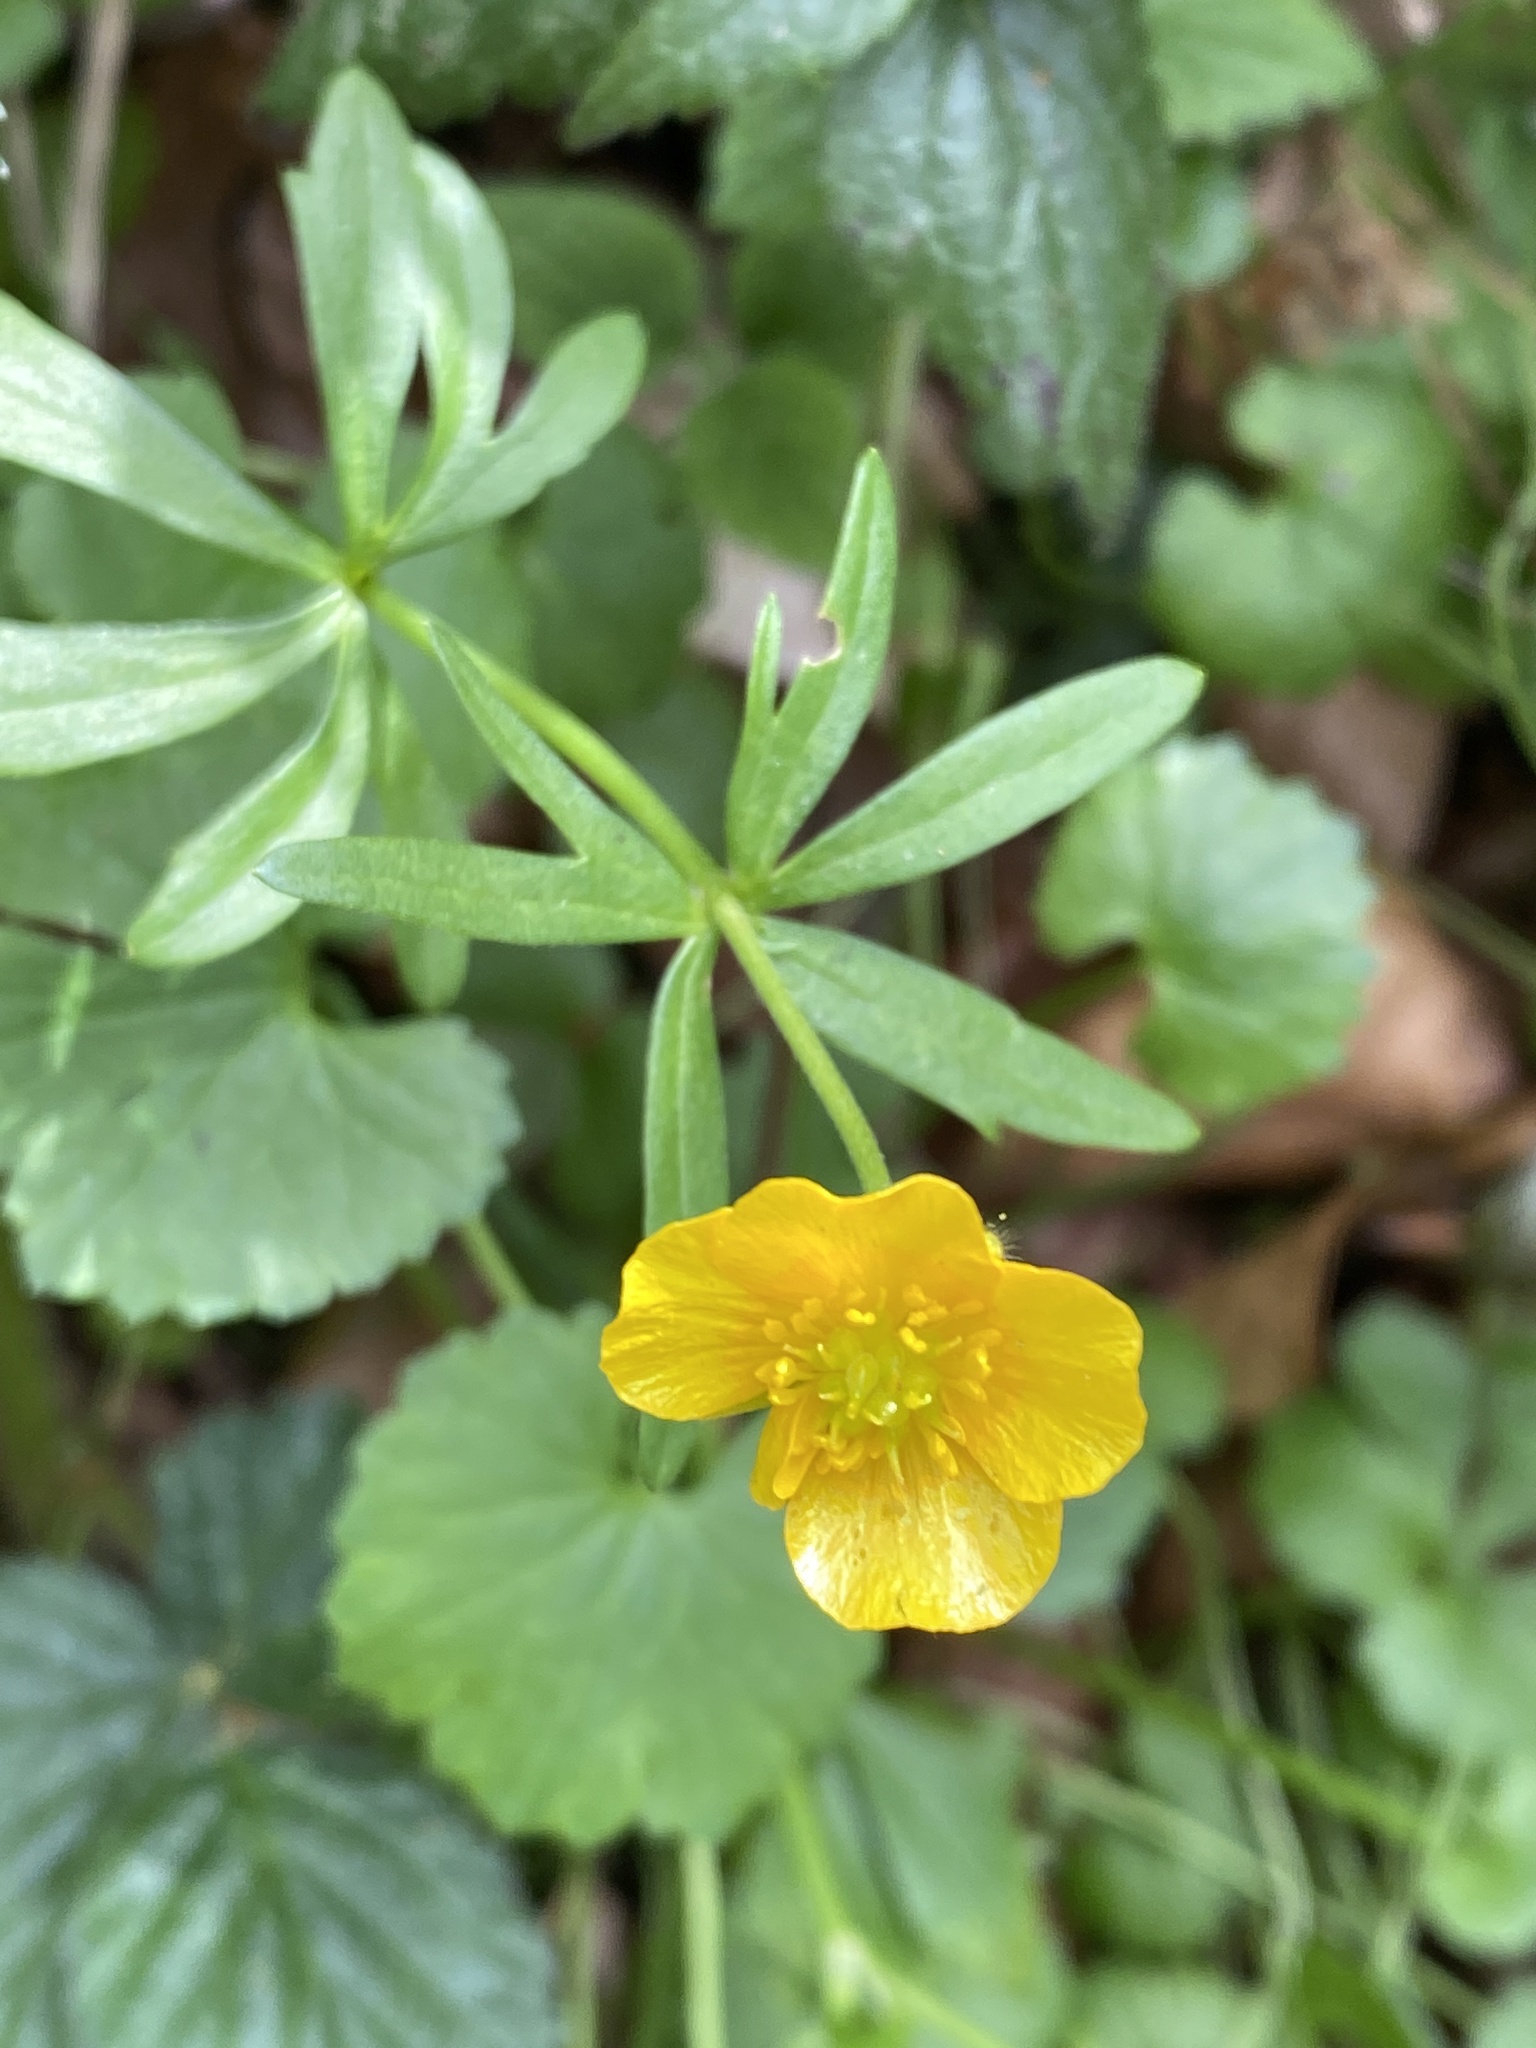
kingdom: Plantae
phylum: Tracheophyta
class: Magnoliopsida
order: Ranunculales
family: Ranunculaceae
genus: Ranunculus
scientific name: Ranunculus auricomus
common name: Goldilocks buttercup
